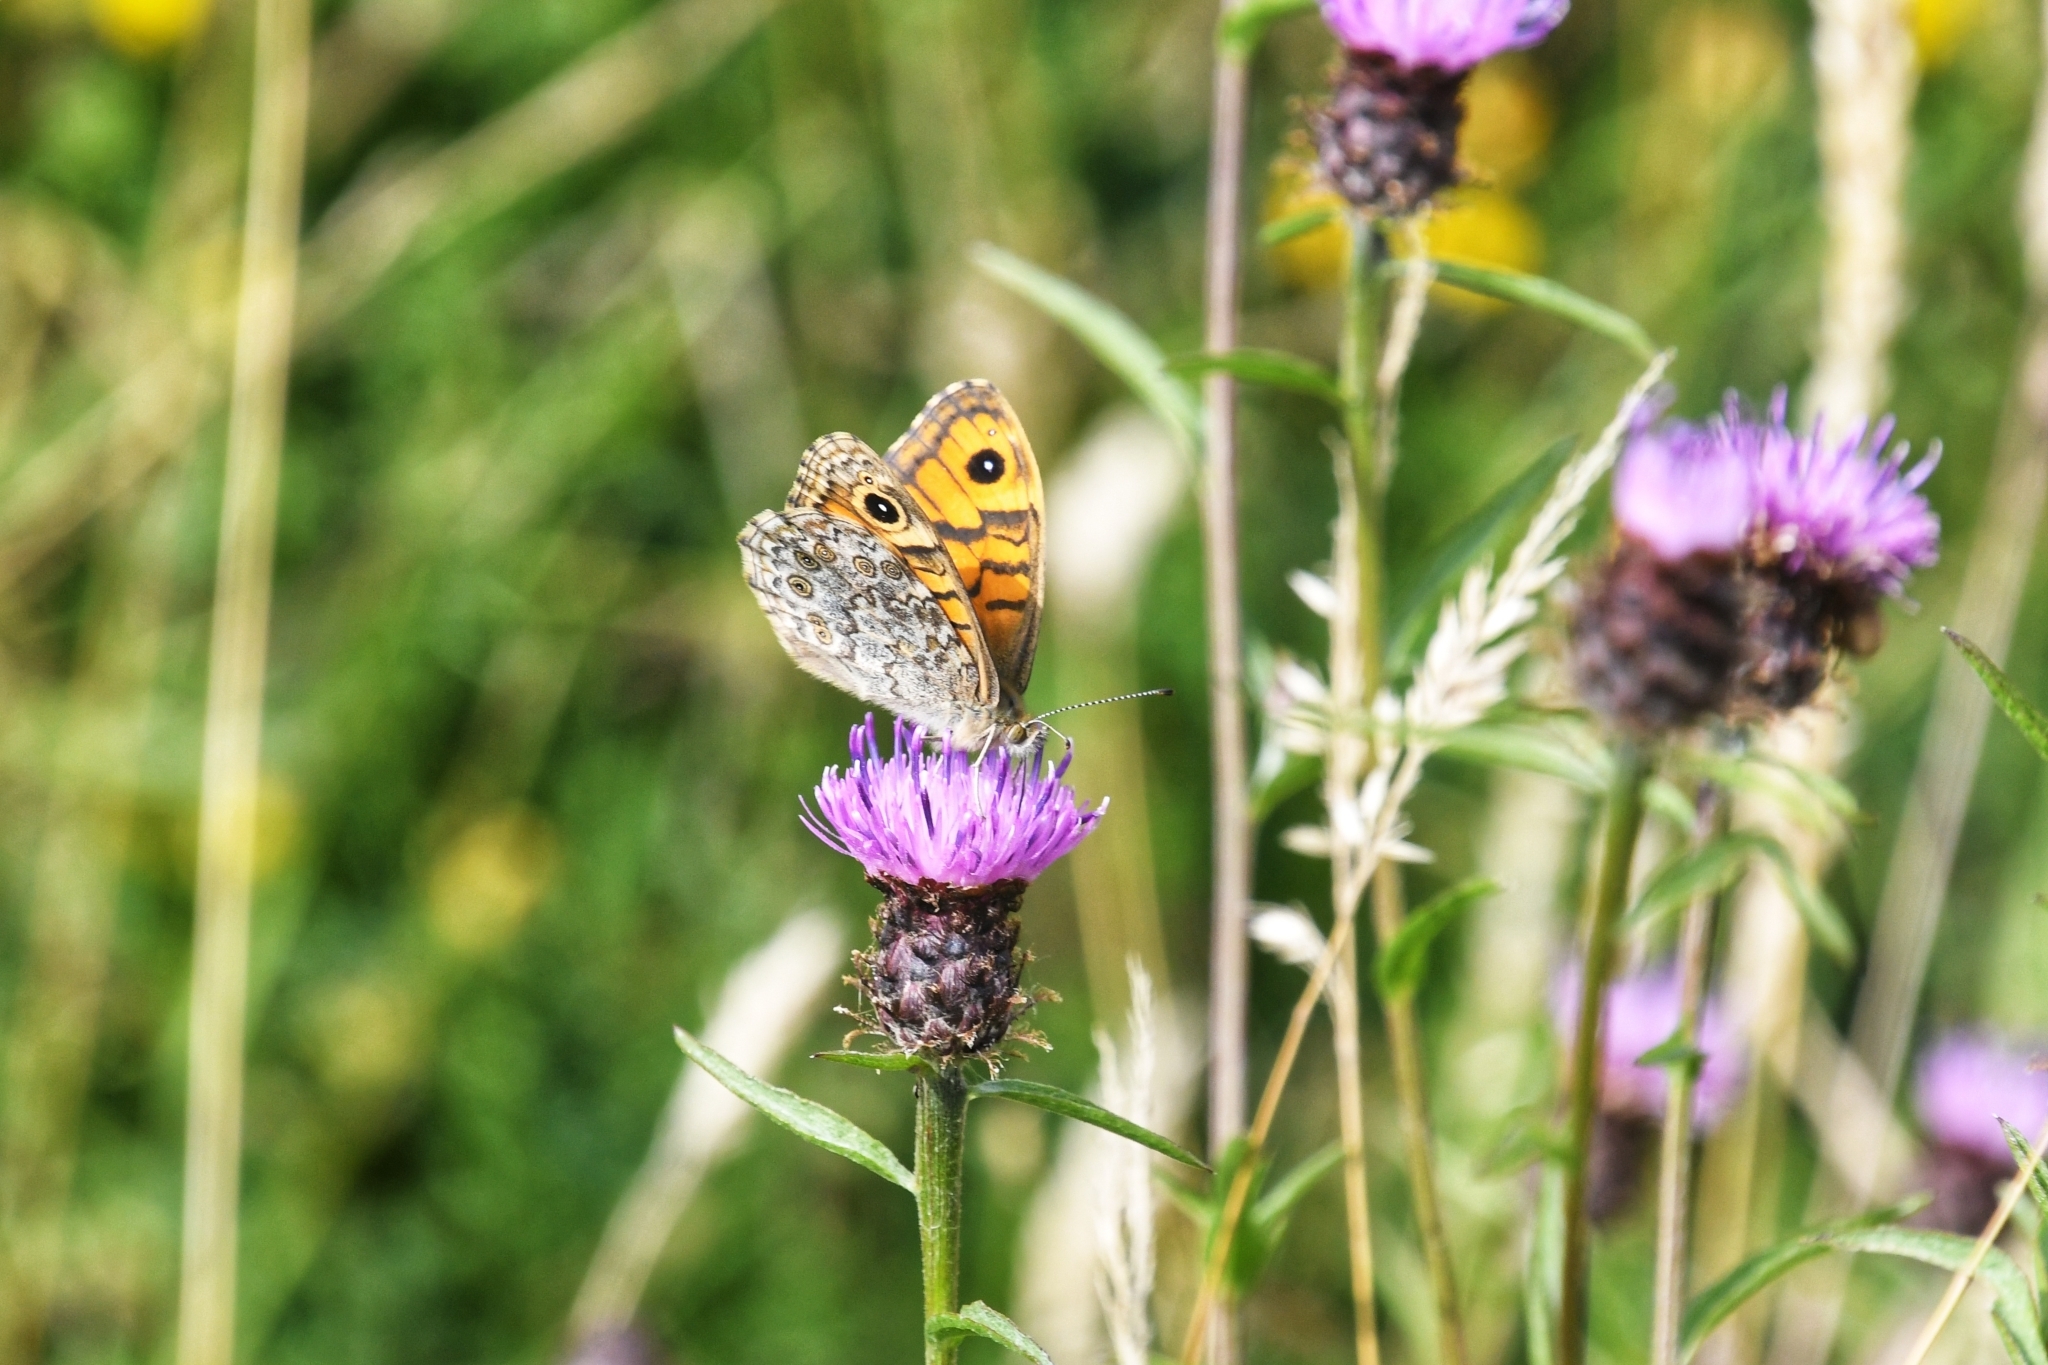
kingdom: Animalia
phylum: Arthropoda
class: Insecta
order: Lepidoptera
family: Nymphalidae
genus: Pararge
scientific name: Pararge Lasiommata megera
